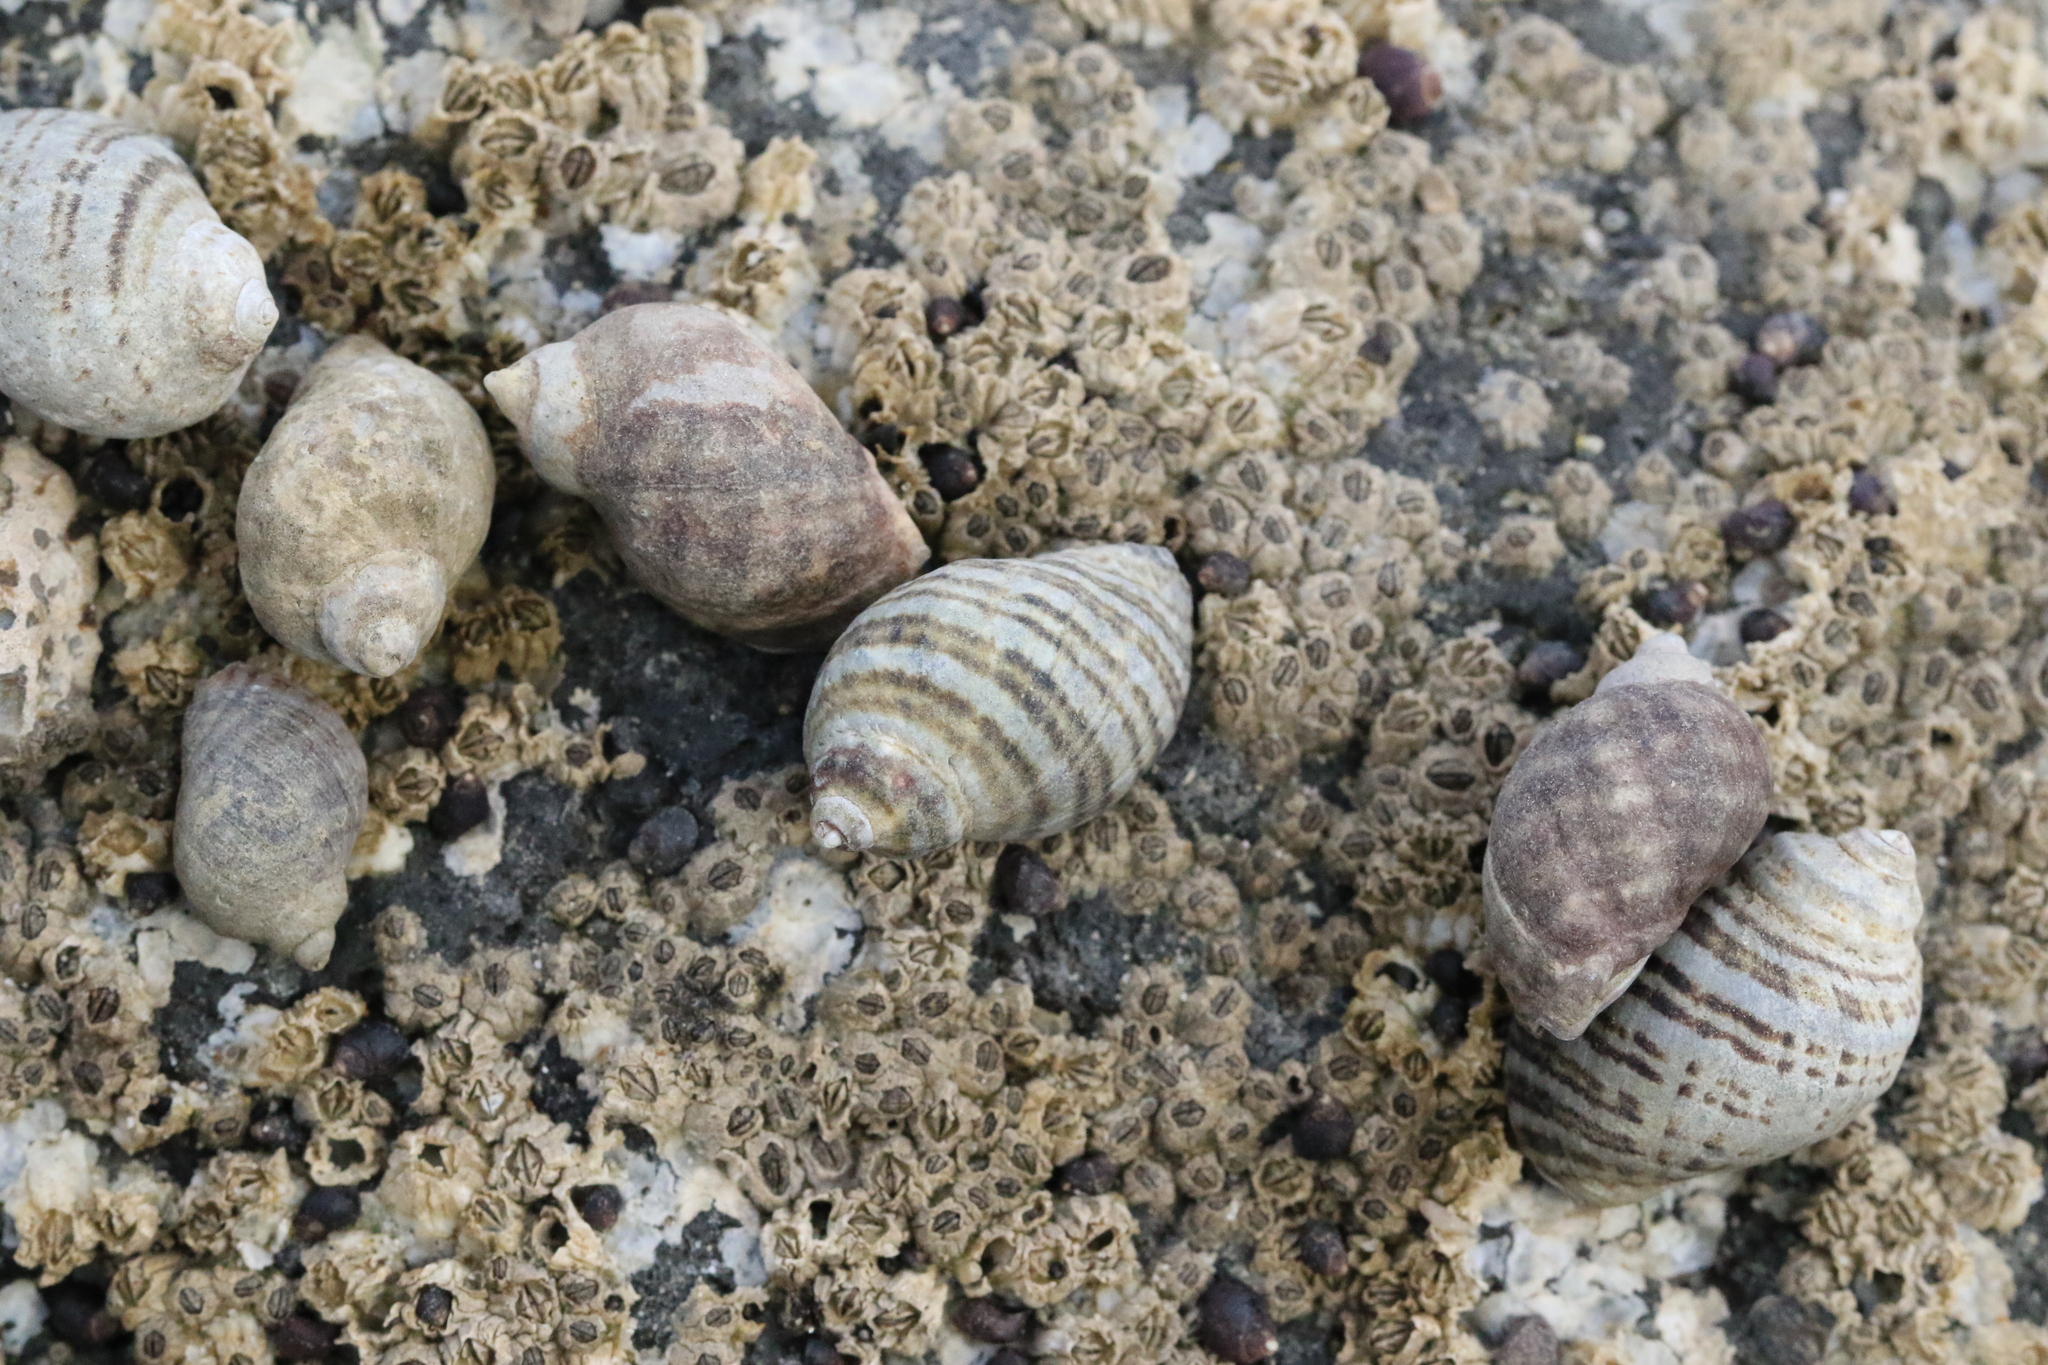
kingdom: Animalia
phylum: Mollusca
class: Gastropoda
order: Neogastropoda
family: Muricidae
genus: Nucella
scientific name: Nucella ostrina
